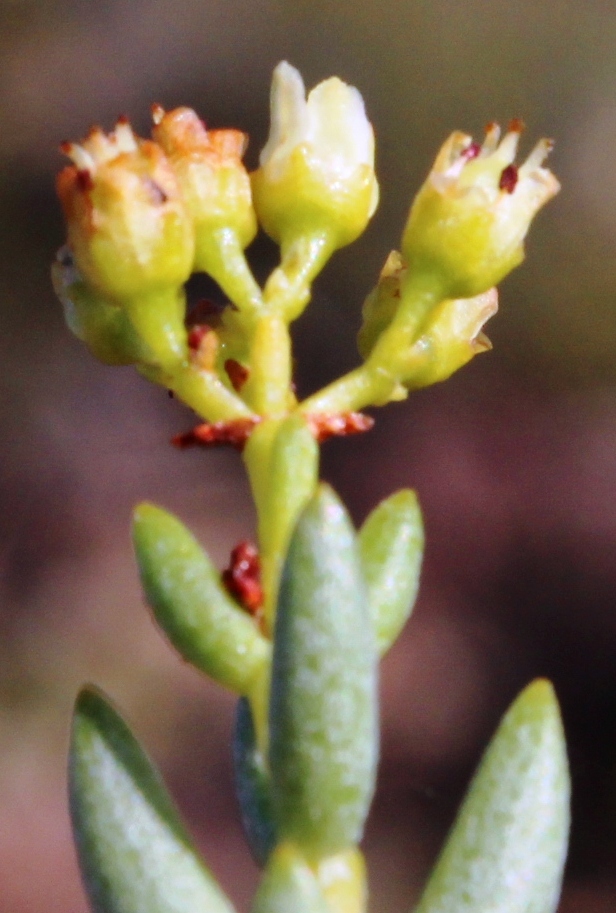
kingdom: Plantae
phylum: Tracheophyta
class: Magnoliopsida
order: Saxifragales
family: Crassulaceae
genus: Crassula
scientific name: Crassula tetragona
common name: Pygmyweed
